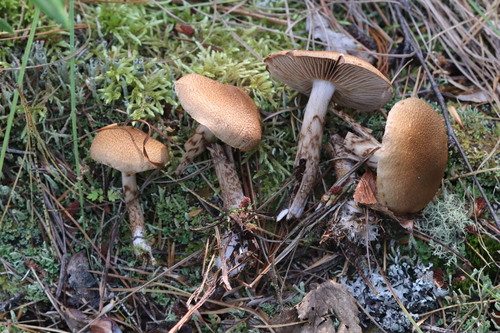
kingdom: Fungi
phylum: Basidiomycota
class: Agaricomycetes
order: Agaricales
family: Cortinariaceae
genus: Cortinarius
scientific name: Cortinarius pholideus
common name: Scaly webcap
